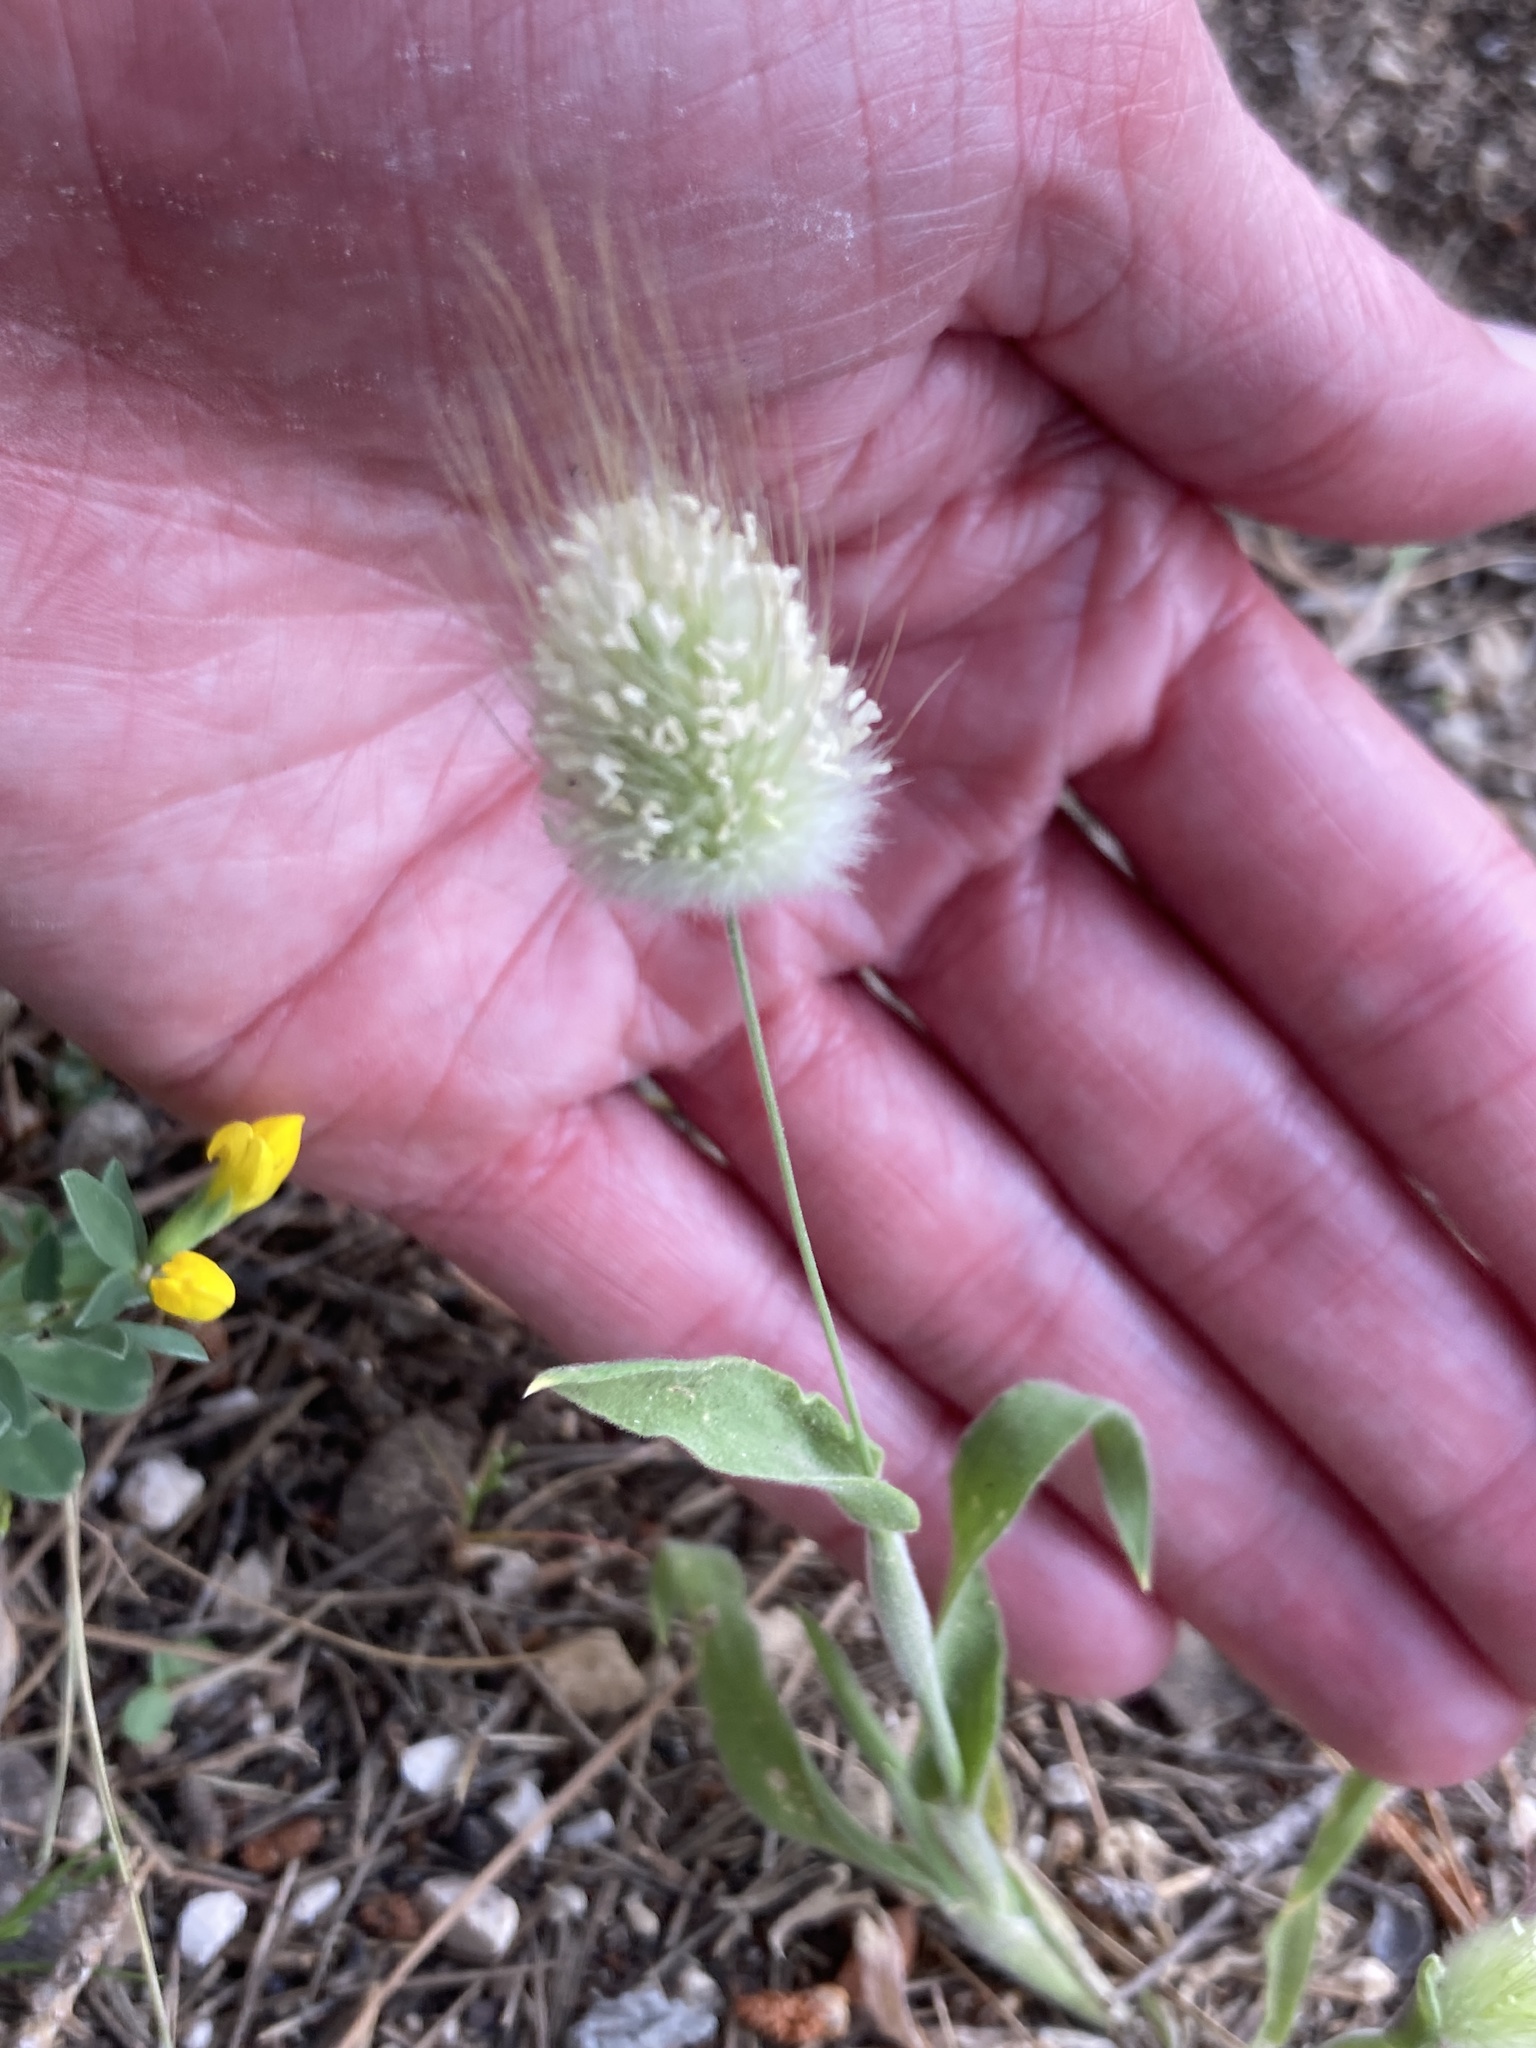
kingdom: Plantae
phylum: Tracheophyta
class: Liliopsida
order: Poales
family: Poaceae
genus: Lagurus
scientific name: Lagurus ovatus
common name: Hare's-tail
